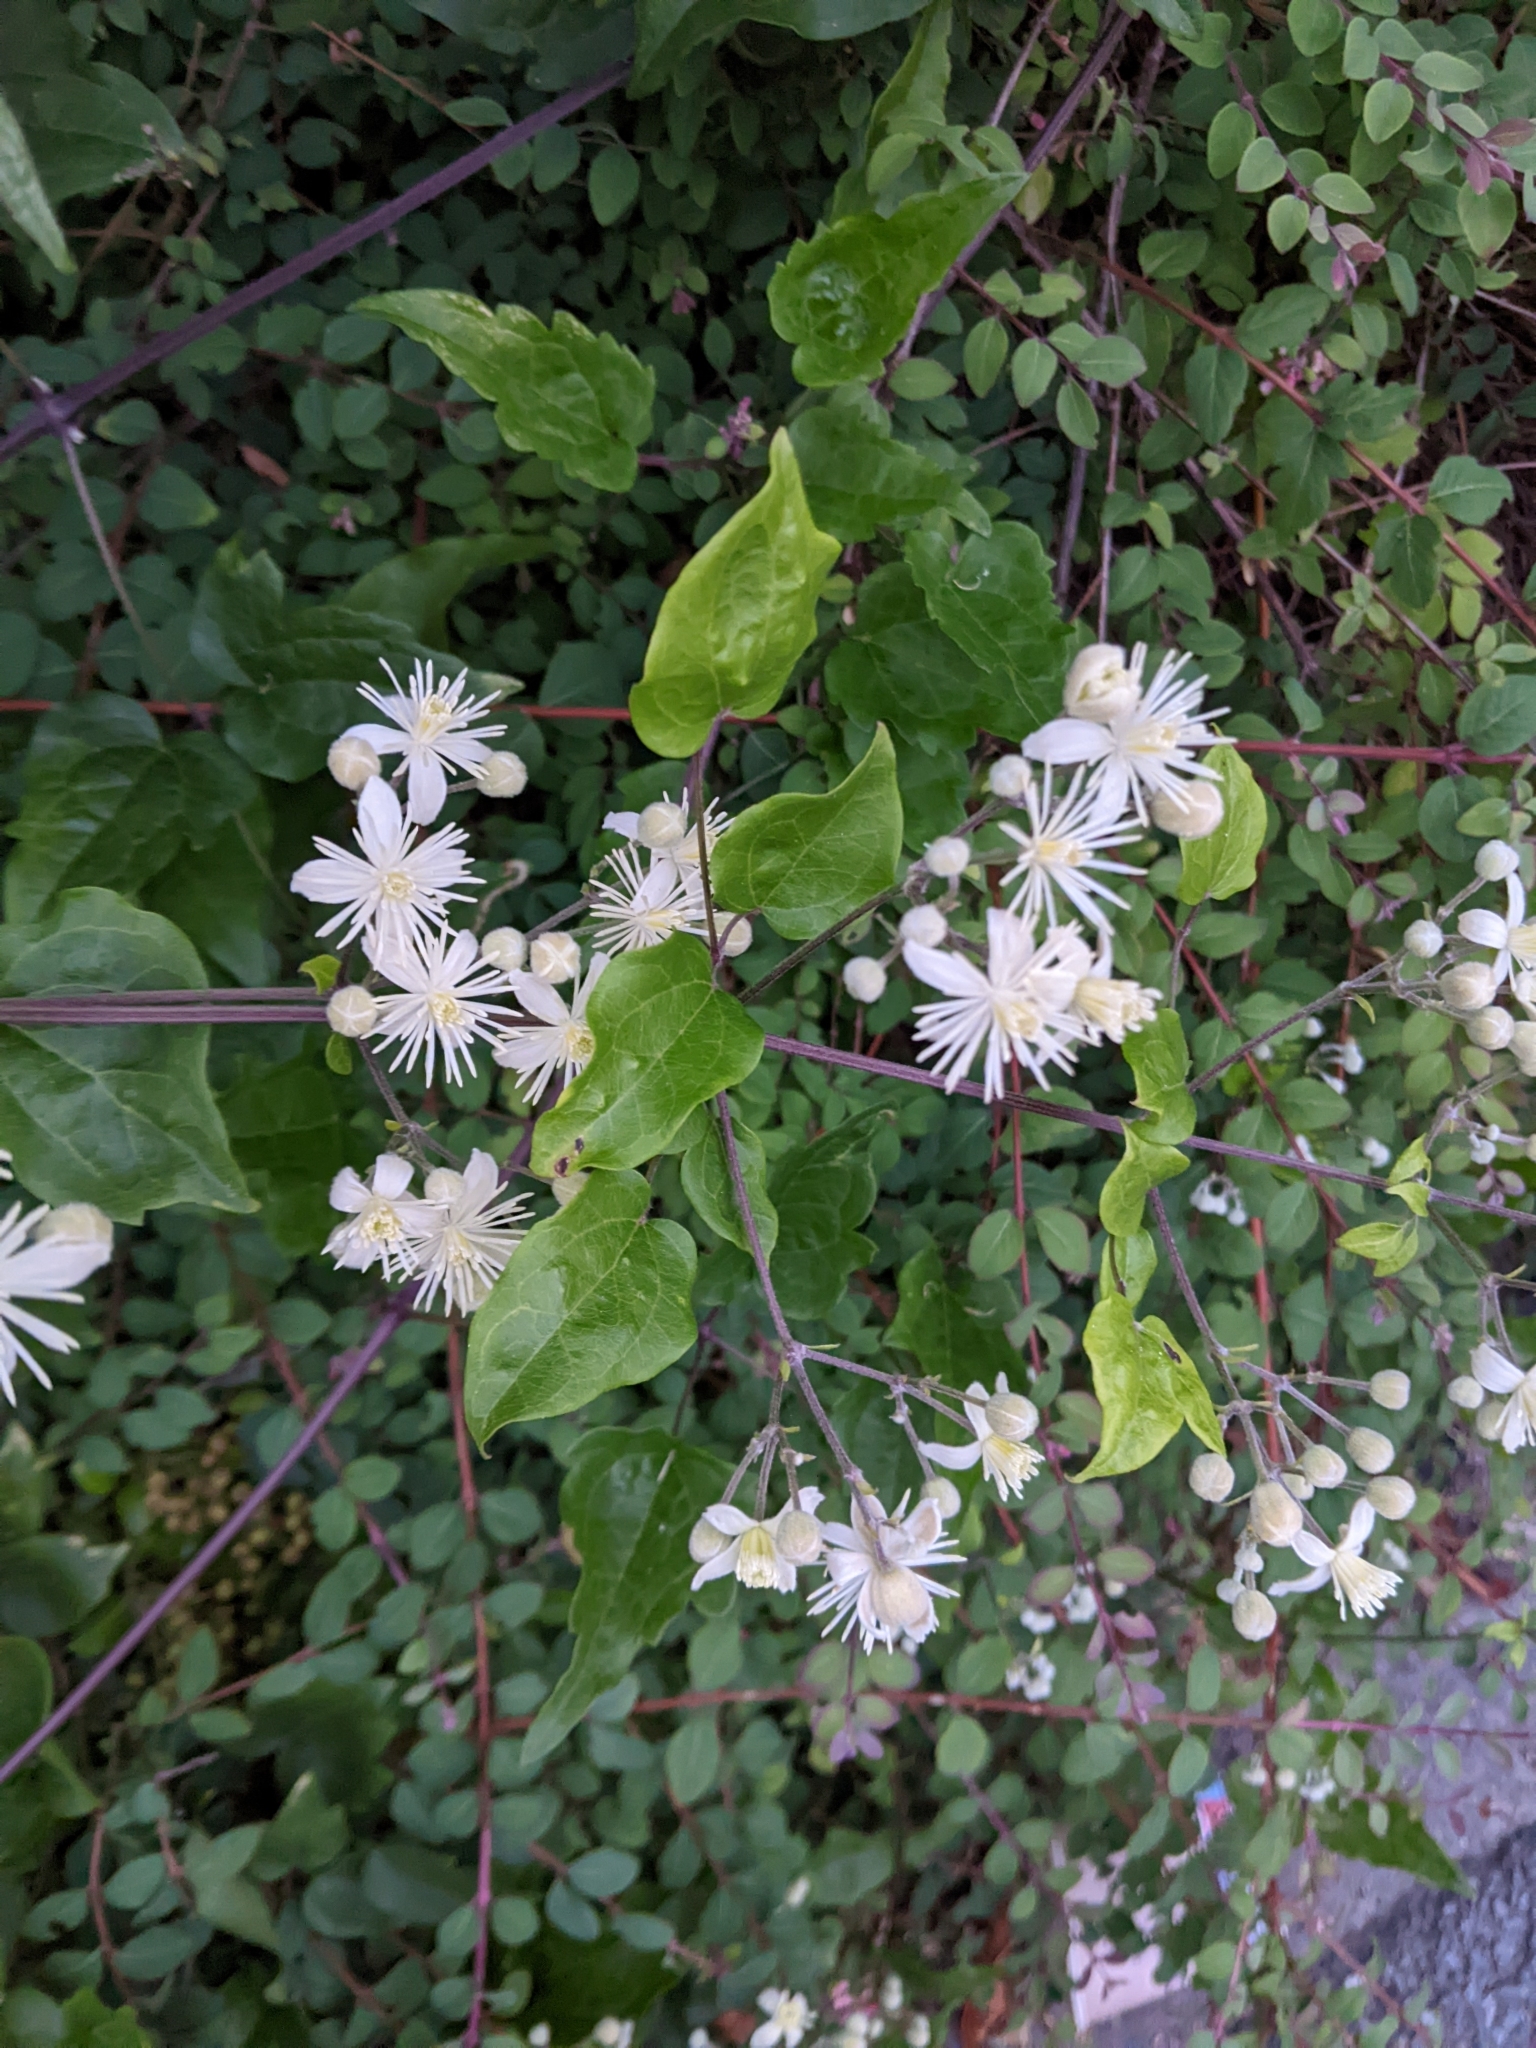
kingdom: Plantae
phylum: Tracheophyta
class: Magnoliopsida
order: Ranunculales
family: Ranunculaceae
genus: Clematis
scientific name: Clematis vitalba
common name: Evergreen clematis
